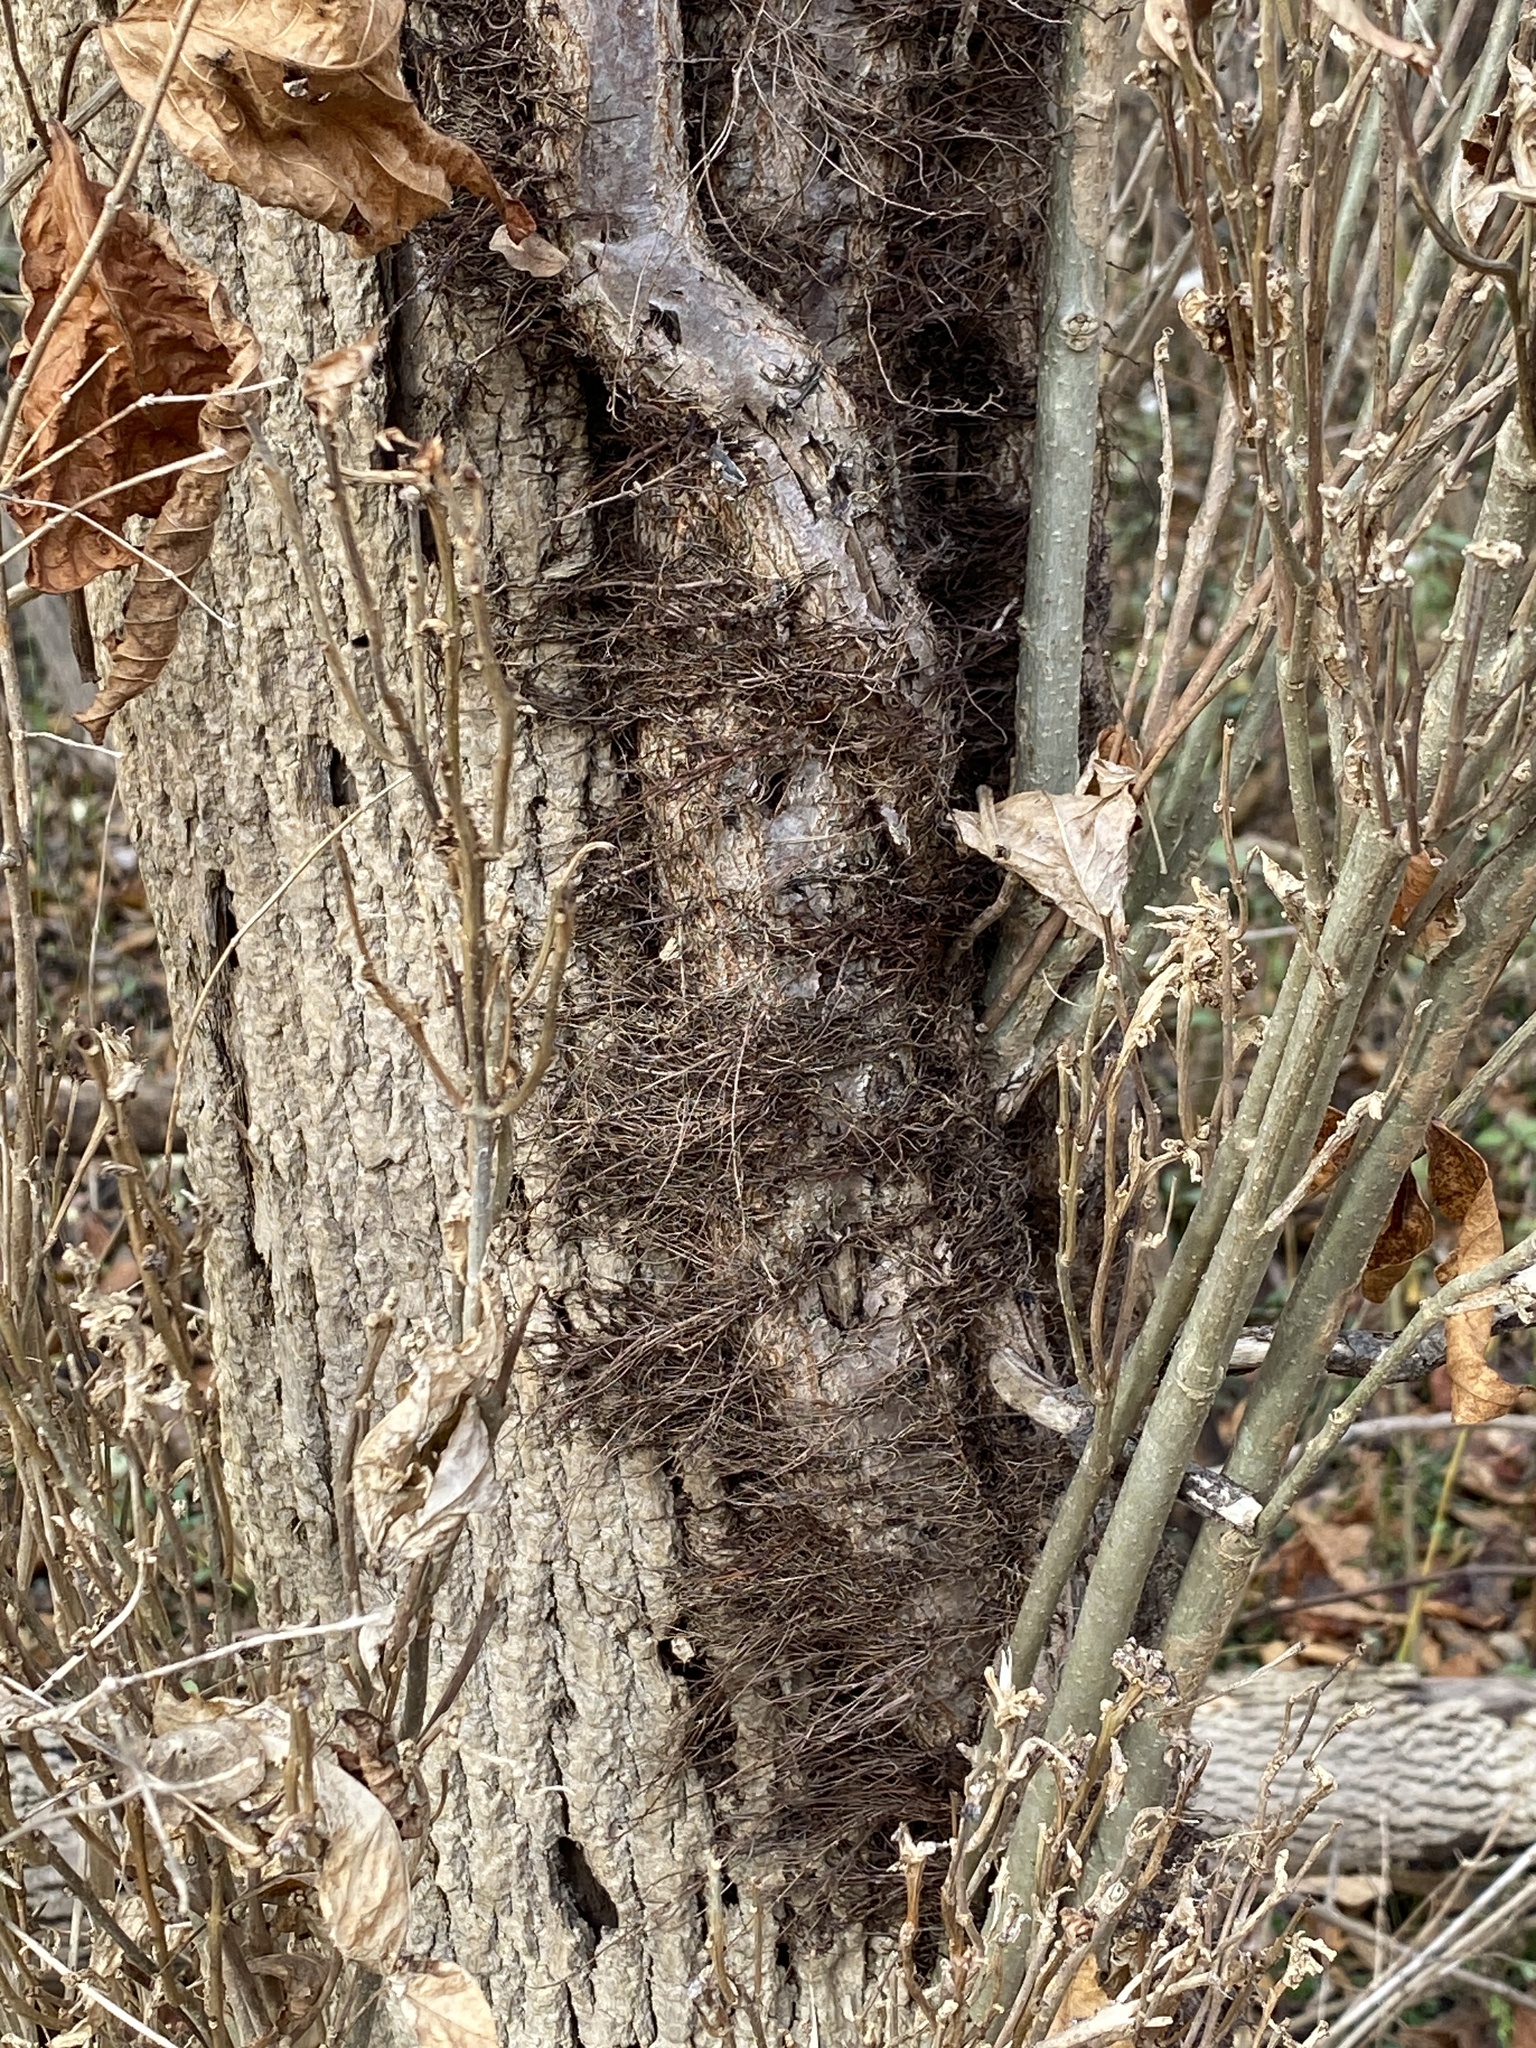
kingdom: Plantae
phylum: Tracheophyta
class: Magnoliopsida
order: Sapindales
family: Anacardiaceae
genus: Toxicodendron
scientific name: Toxicodendron radicans
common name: Poison ivy
